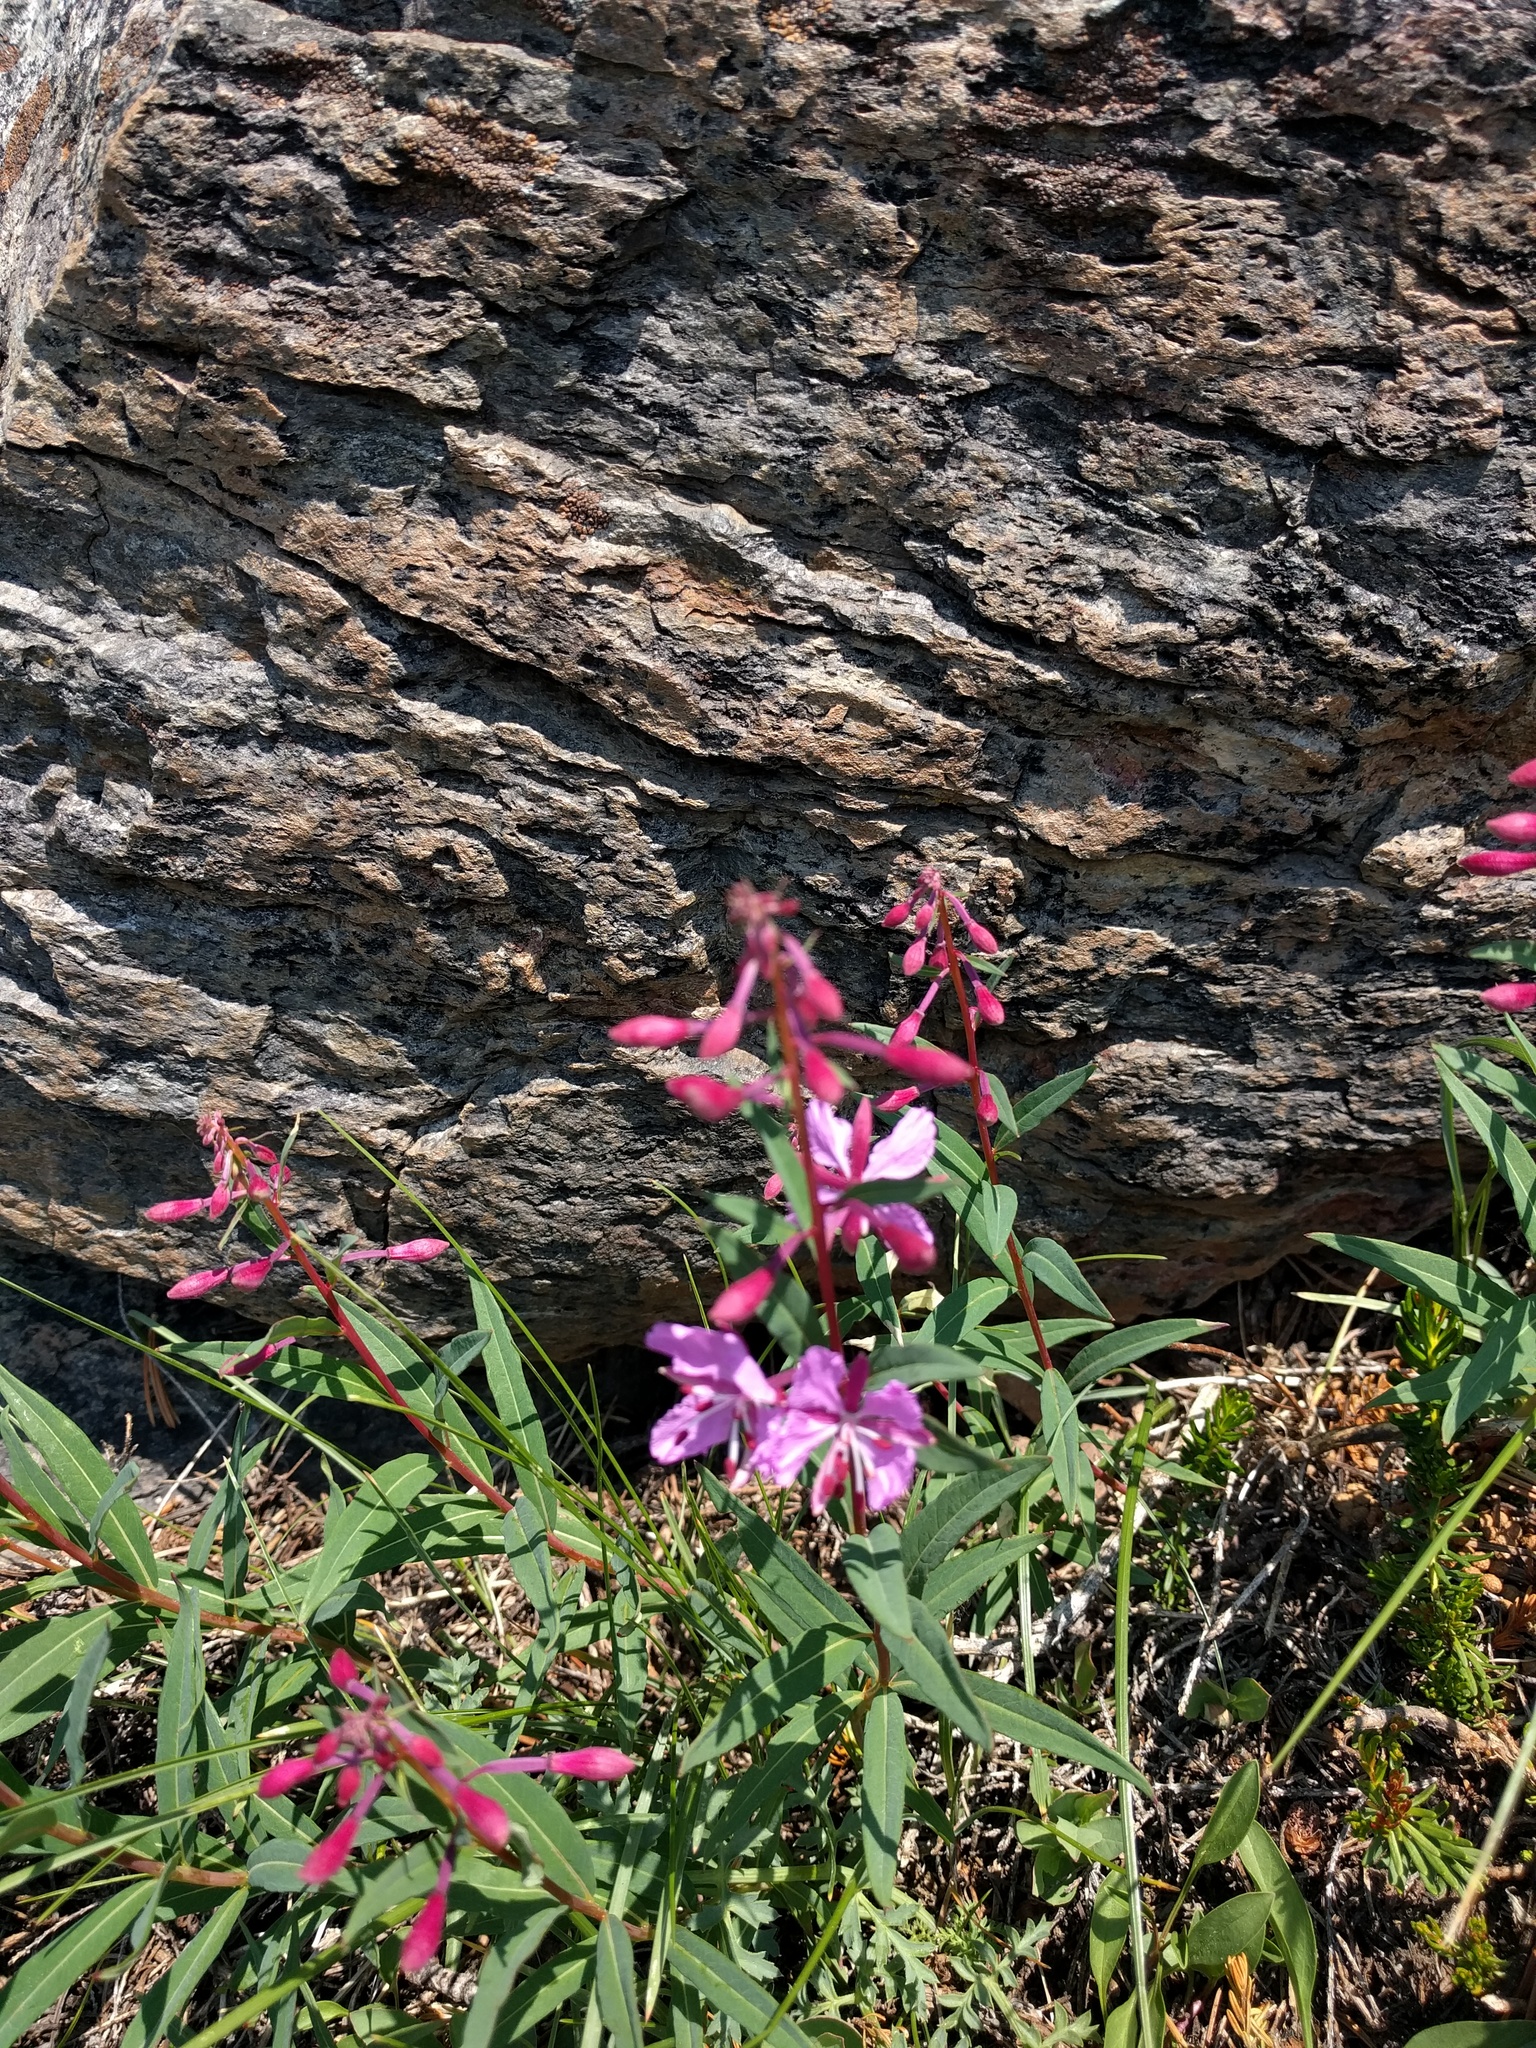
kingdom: Plantae
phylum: Tracheophyta
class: Magnoliopsida
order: Myrtales
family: Onagraceae
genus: Chamaenerion
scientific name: Chamaenerion angustifolium
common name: Fireweed
